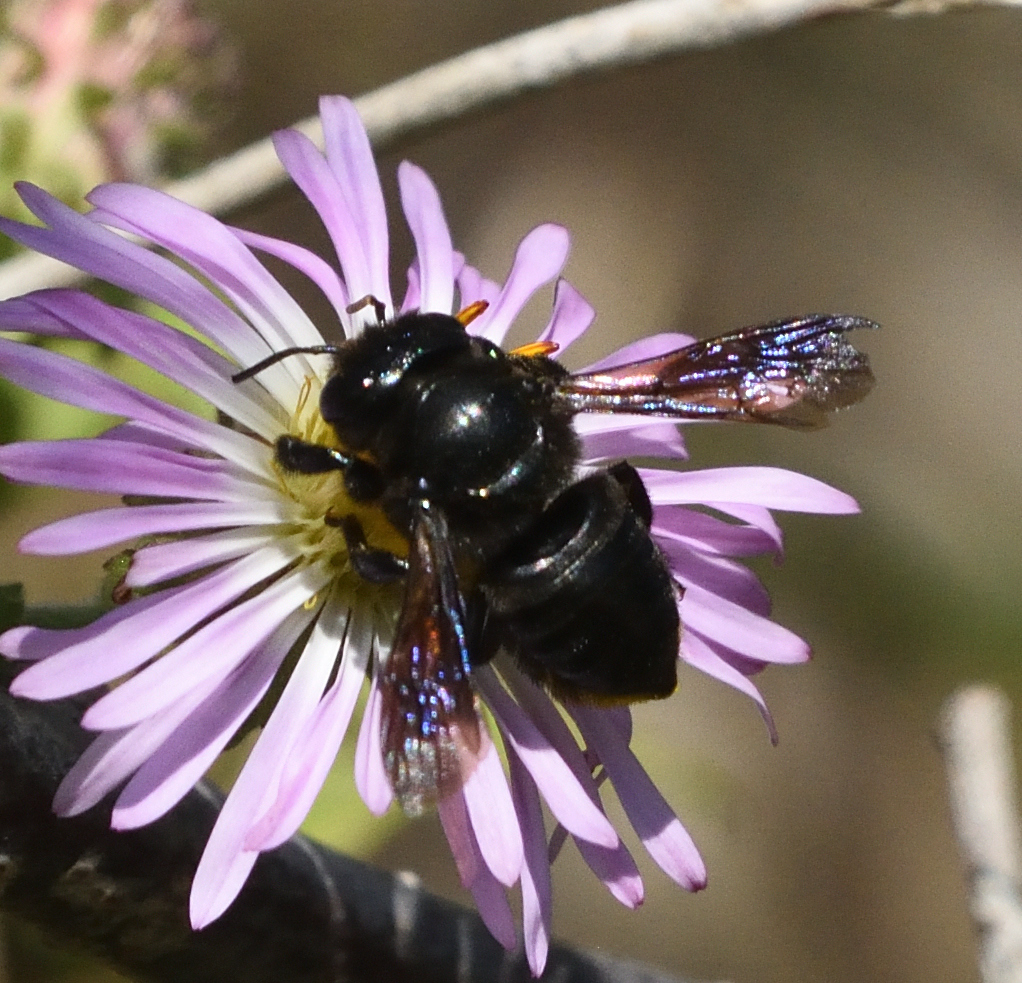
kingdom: Animalia
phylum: Arthropoda
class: Insecta
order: Hymenoptera
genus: Melanosarus
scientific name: Melanosarus
